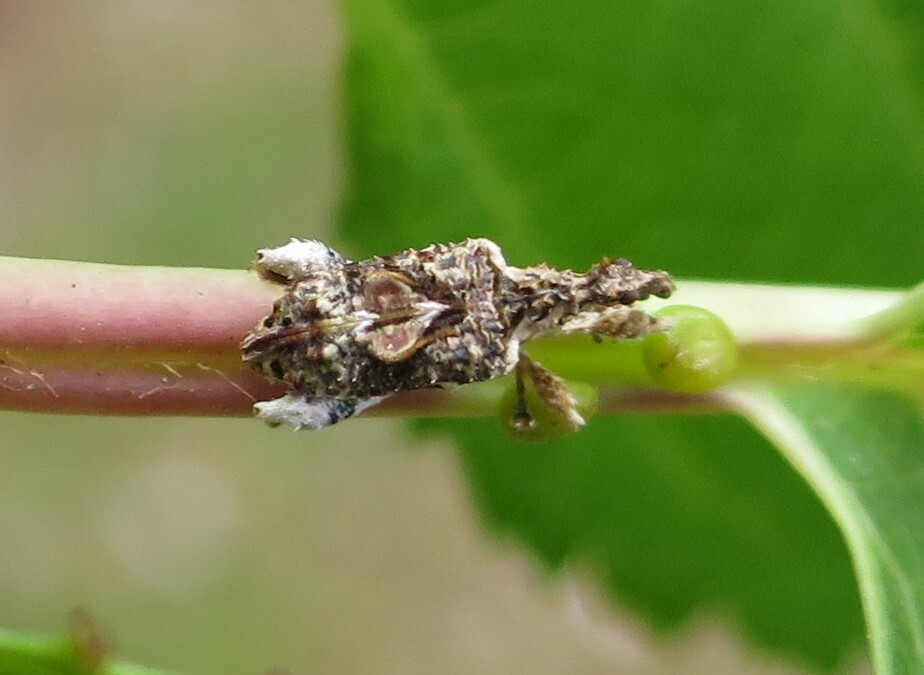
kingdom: Animalia
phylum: Arthropoda
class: Insecta
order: Coleoptera
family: Curculionidae
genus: Stephanorhynchus
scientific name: Stephanorhynchus curvipes
